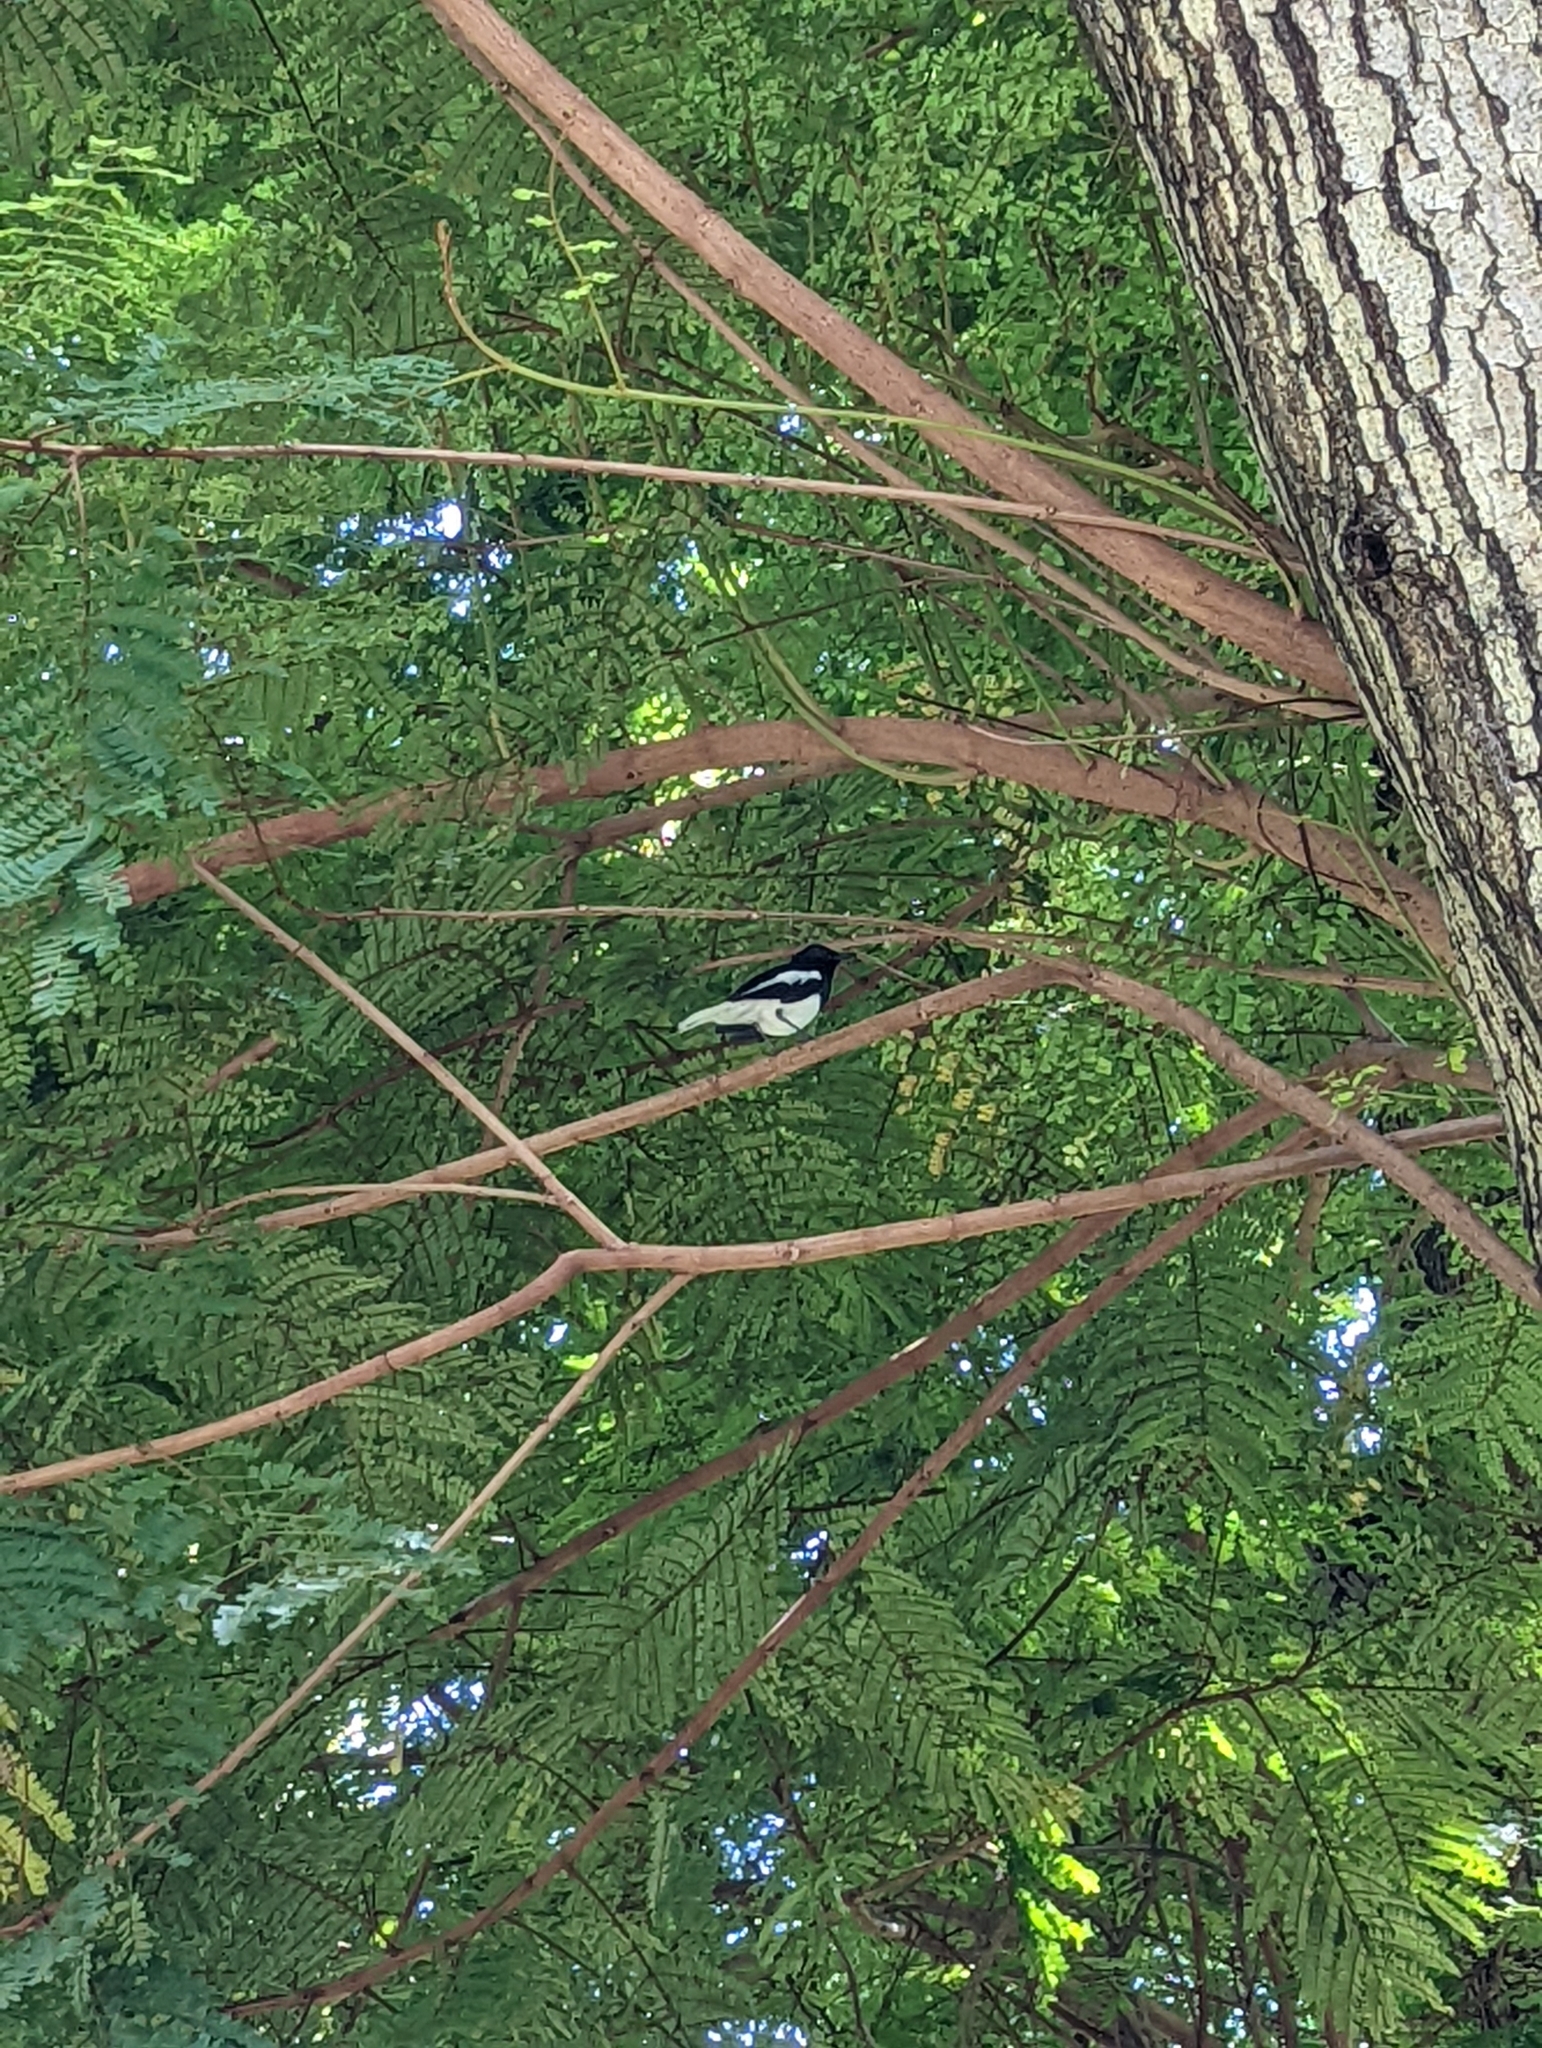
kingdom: Animalia
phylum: Chordata
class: Aves
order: Passeriformes
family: Muscicapidae
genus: Copsychus
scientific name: Copsychus saularis
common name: Oriental magpie-robin
